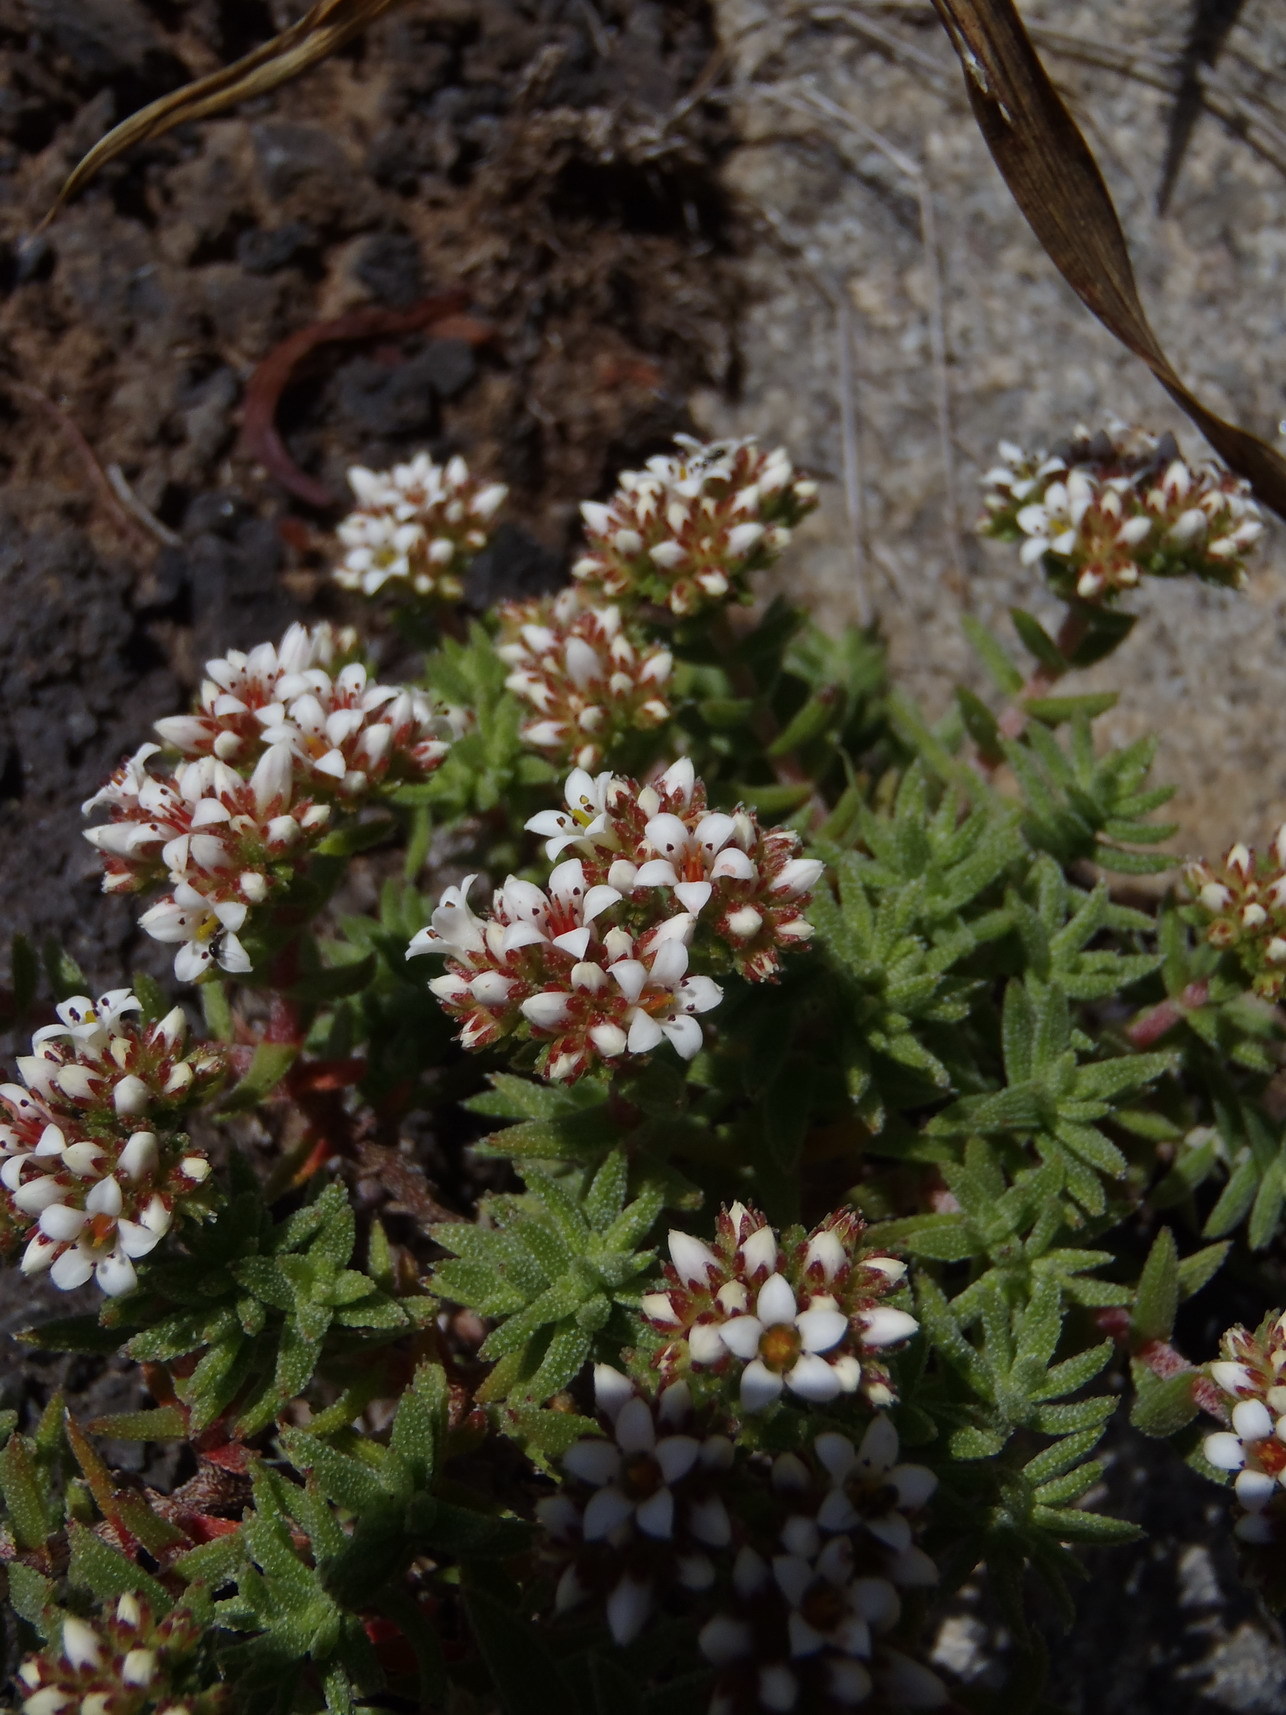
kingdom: Plantae
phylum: Tracheophyta
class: Magnoliopsida
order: Saxifragales
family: Crassulaceae
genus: Crassula
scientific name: Crassula pruinosa
